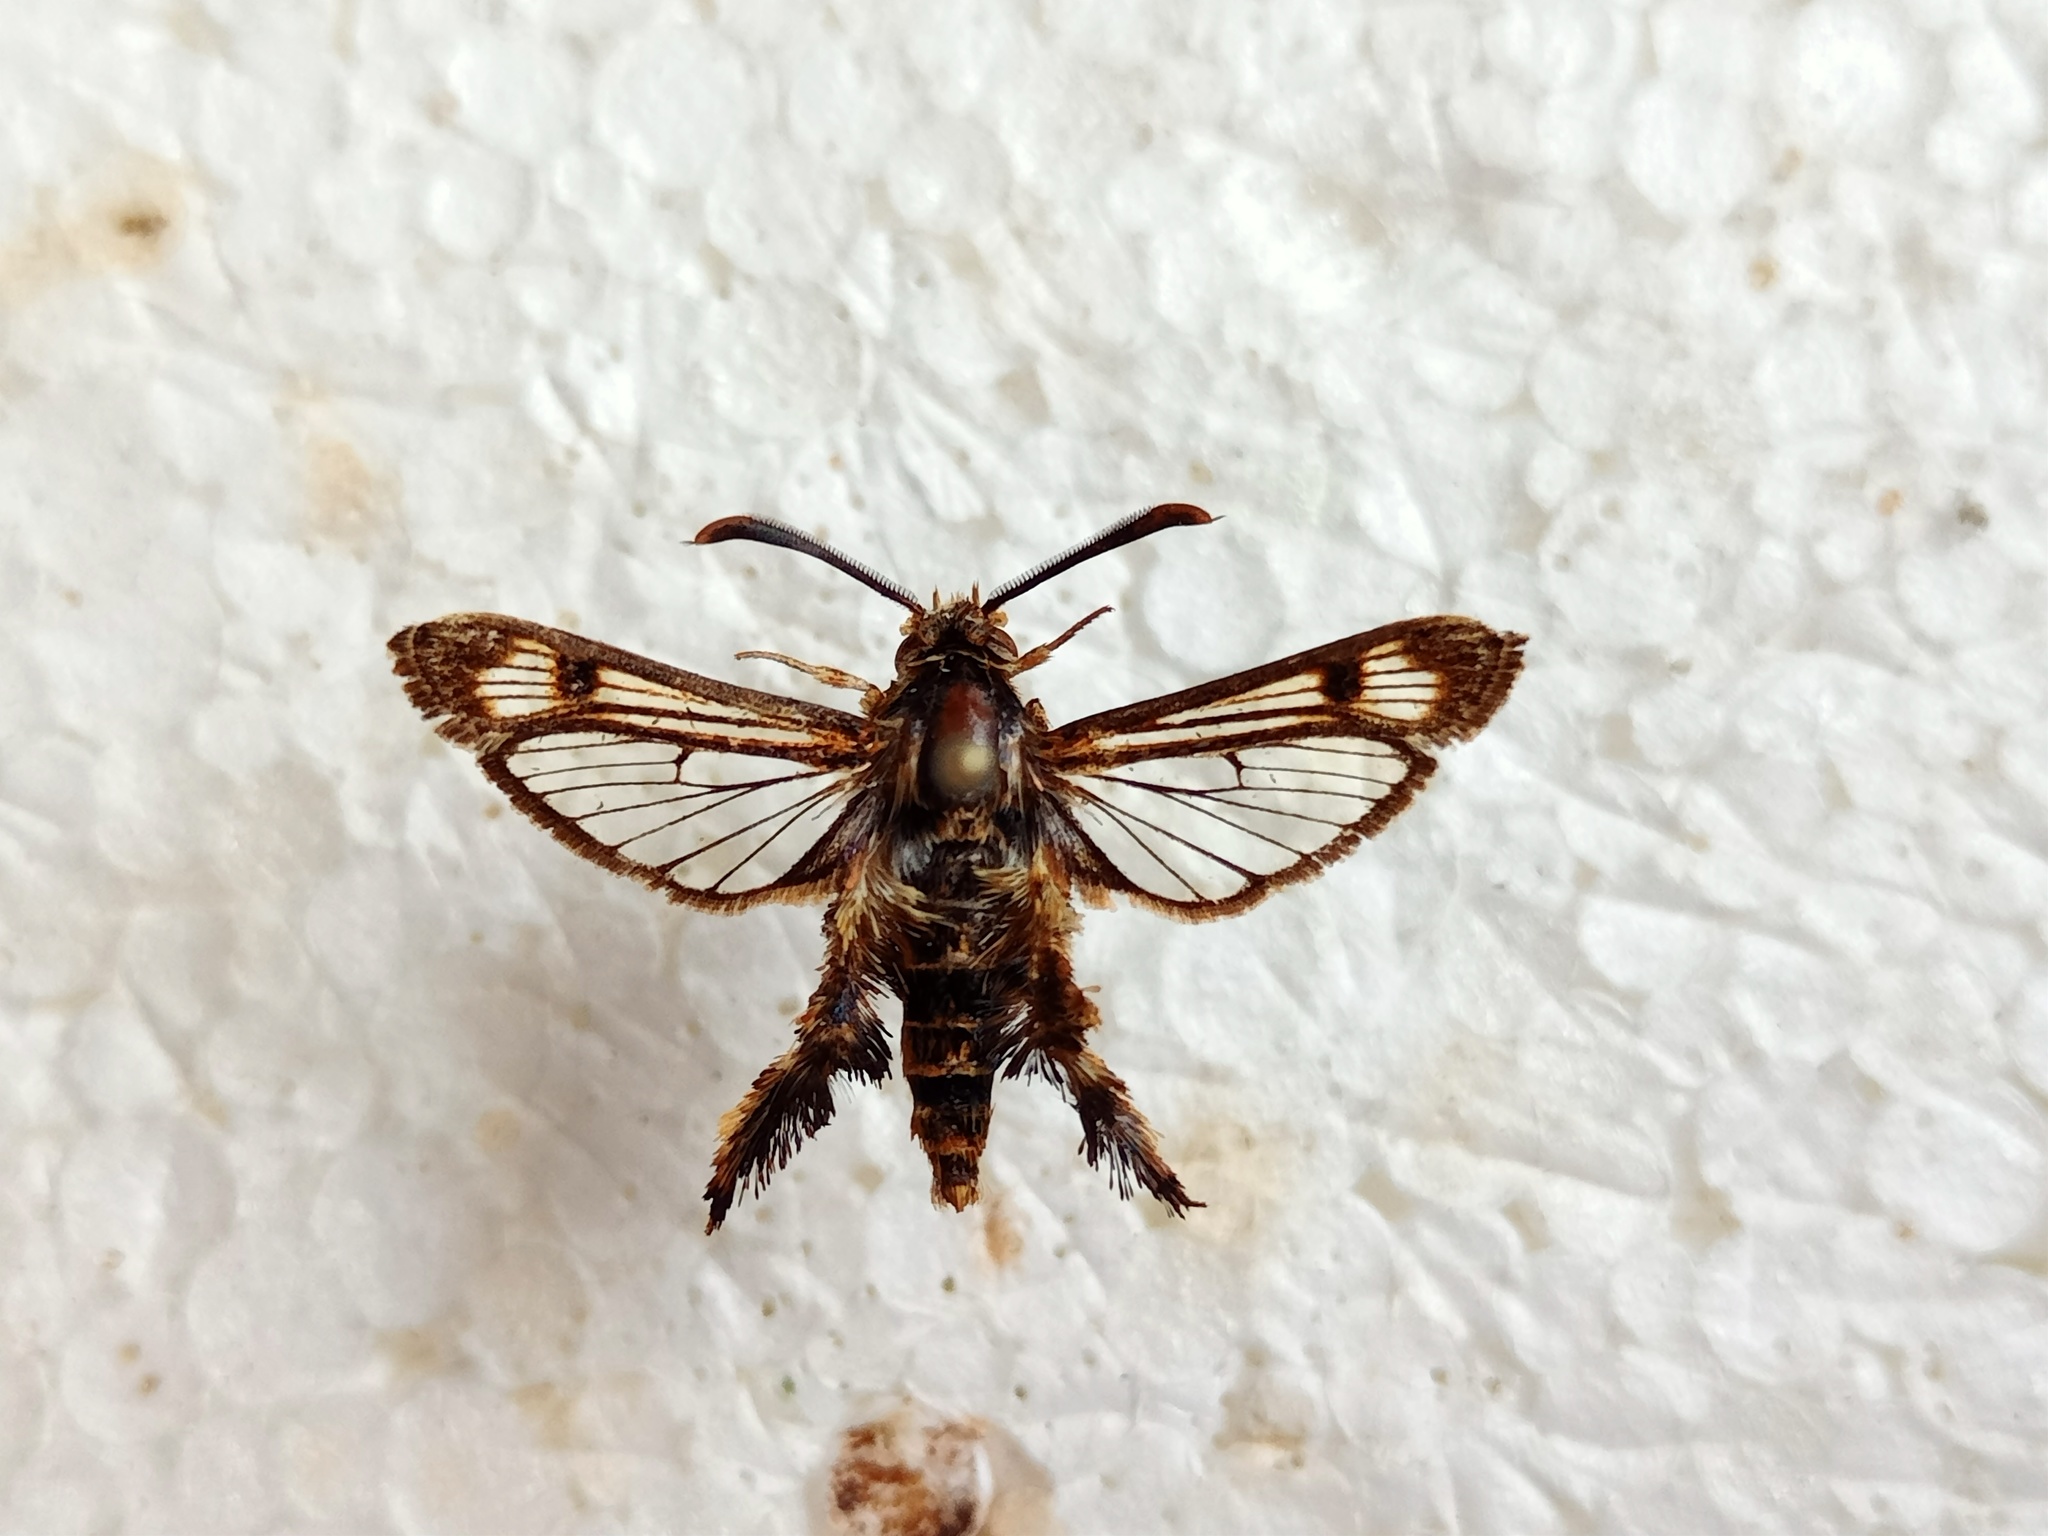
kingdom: Animalia
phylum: Arthropoda
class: Insecta
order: Lepidoptera
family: Sesiidae
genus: Melittia
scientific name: Melittia moni
